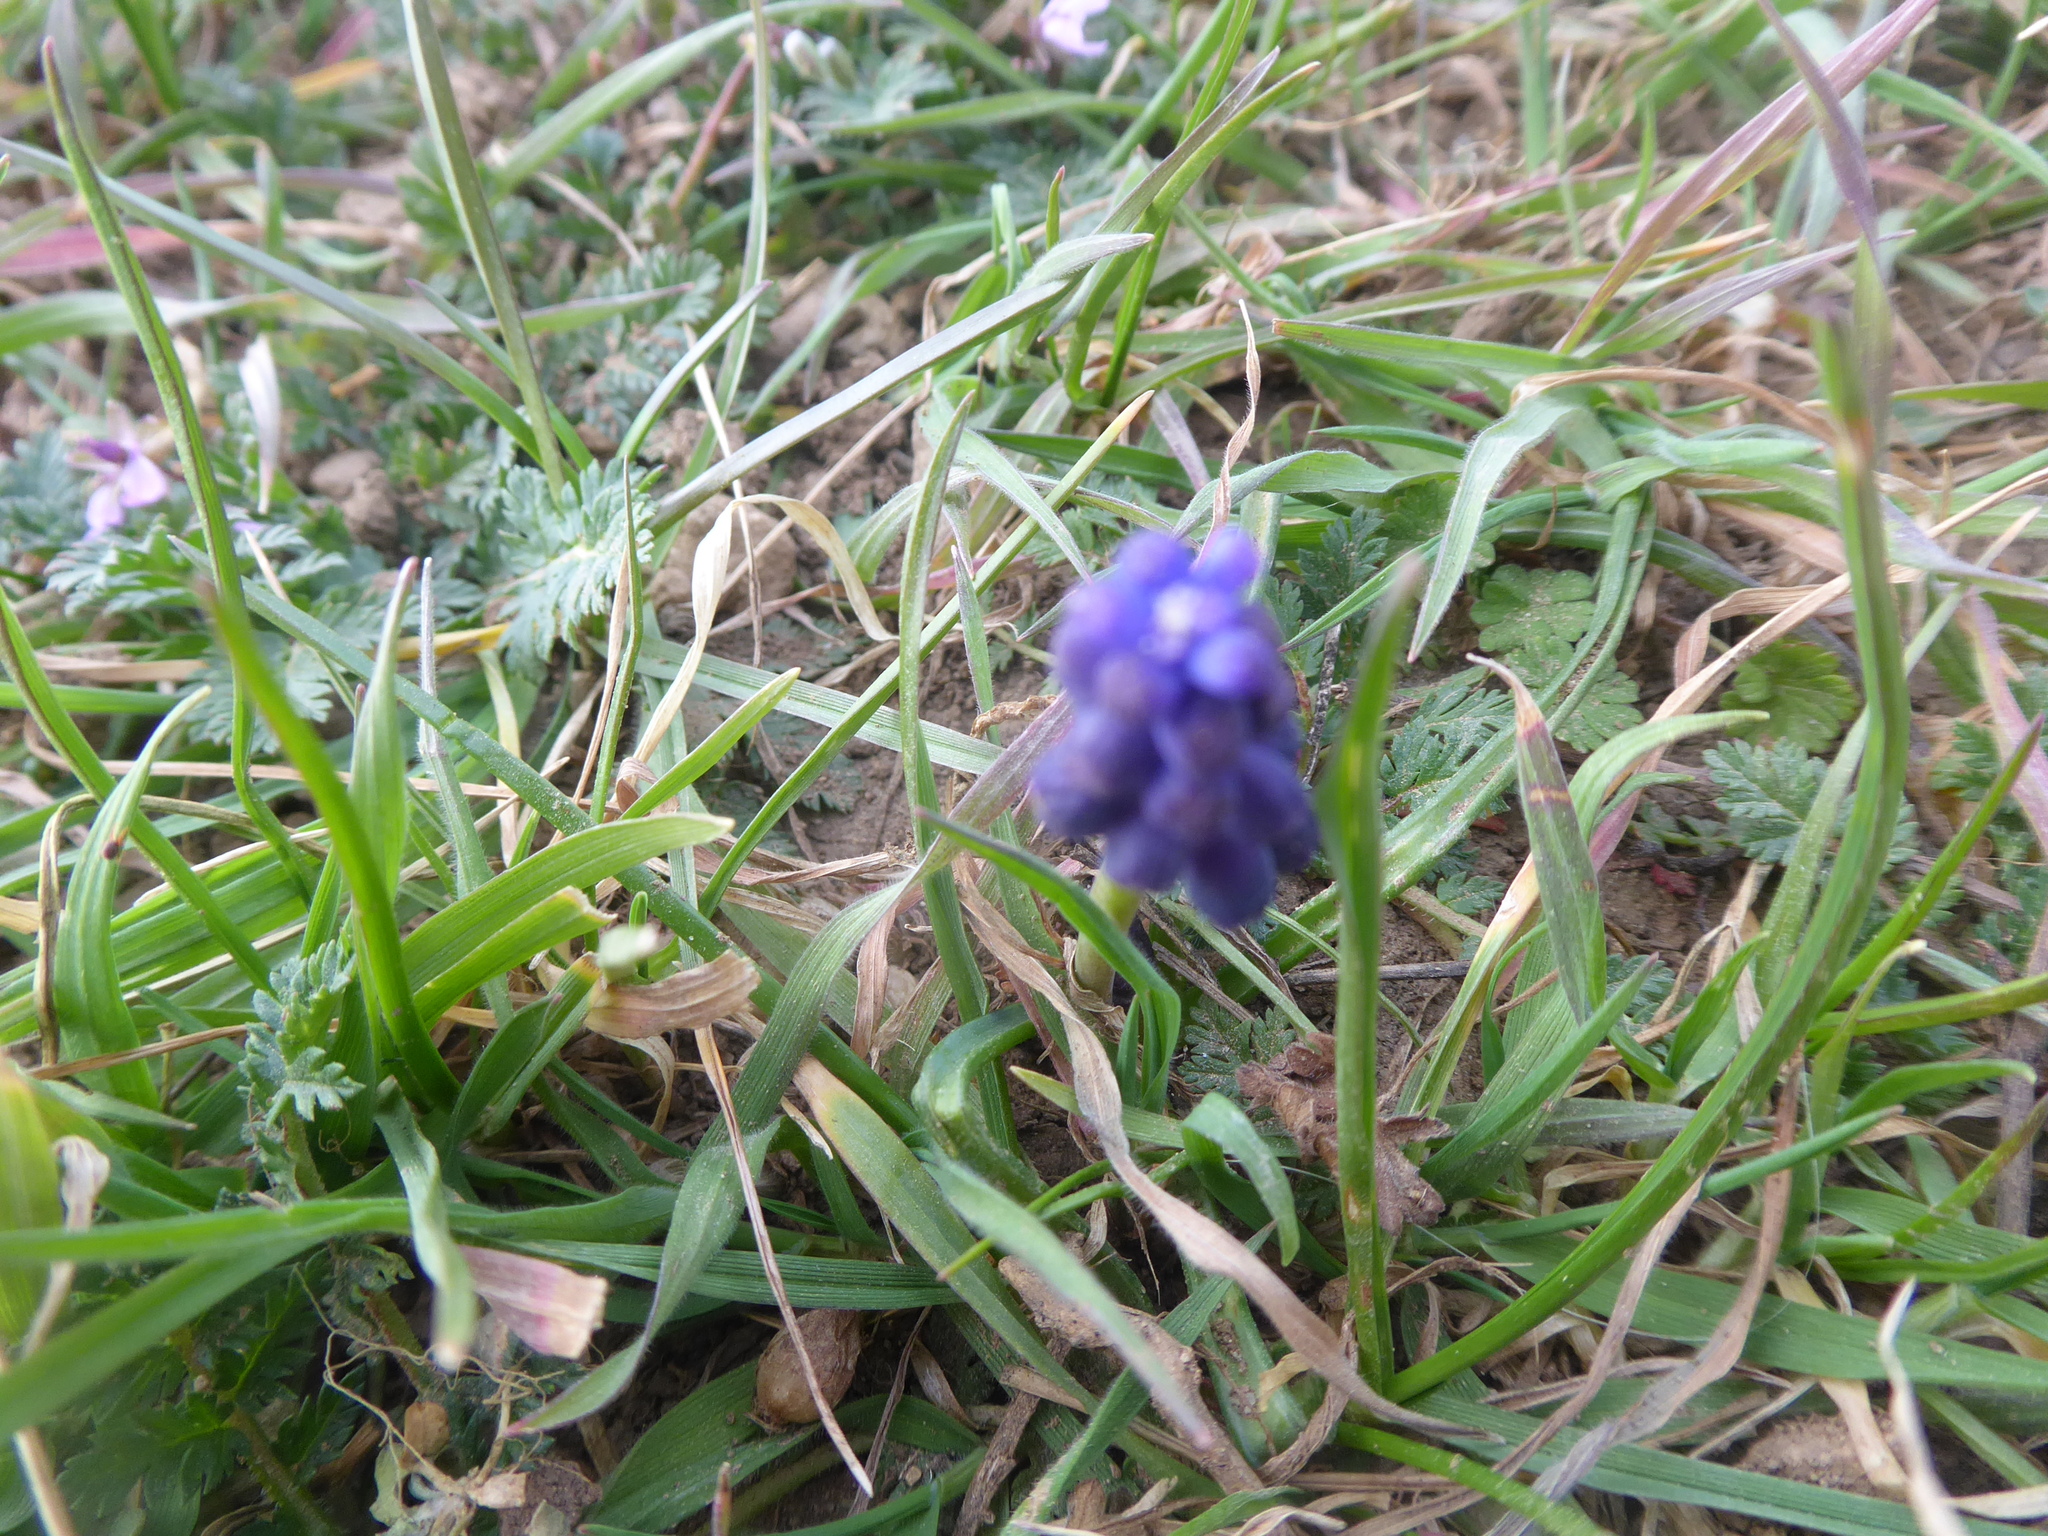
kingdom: Plantae
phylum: Tracheophyta
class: Liliopsida
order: Asparagales
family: Asparagaceae
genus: Muscari
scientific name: Muscari neglectum
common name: Grape-hyacinth
